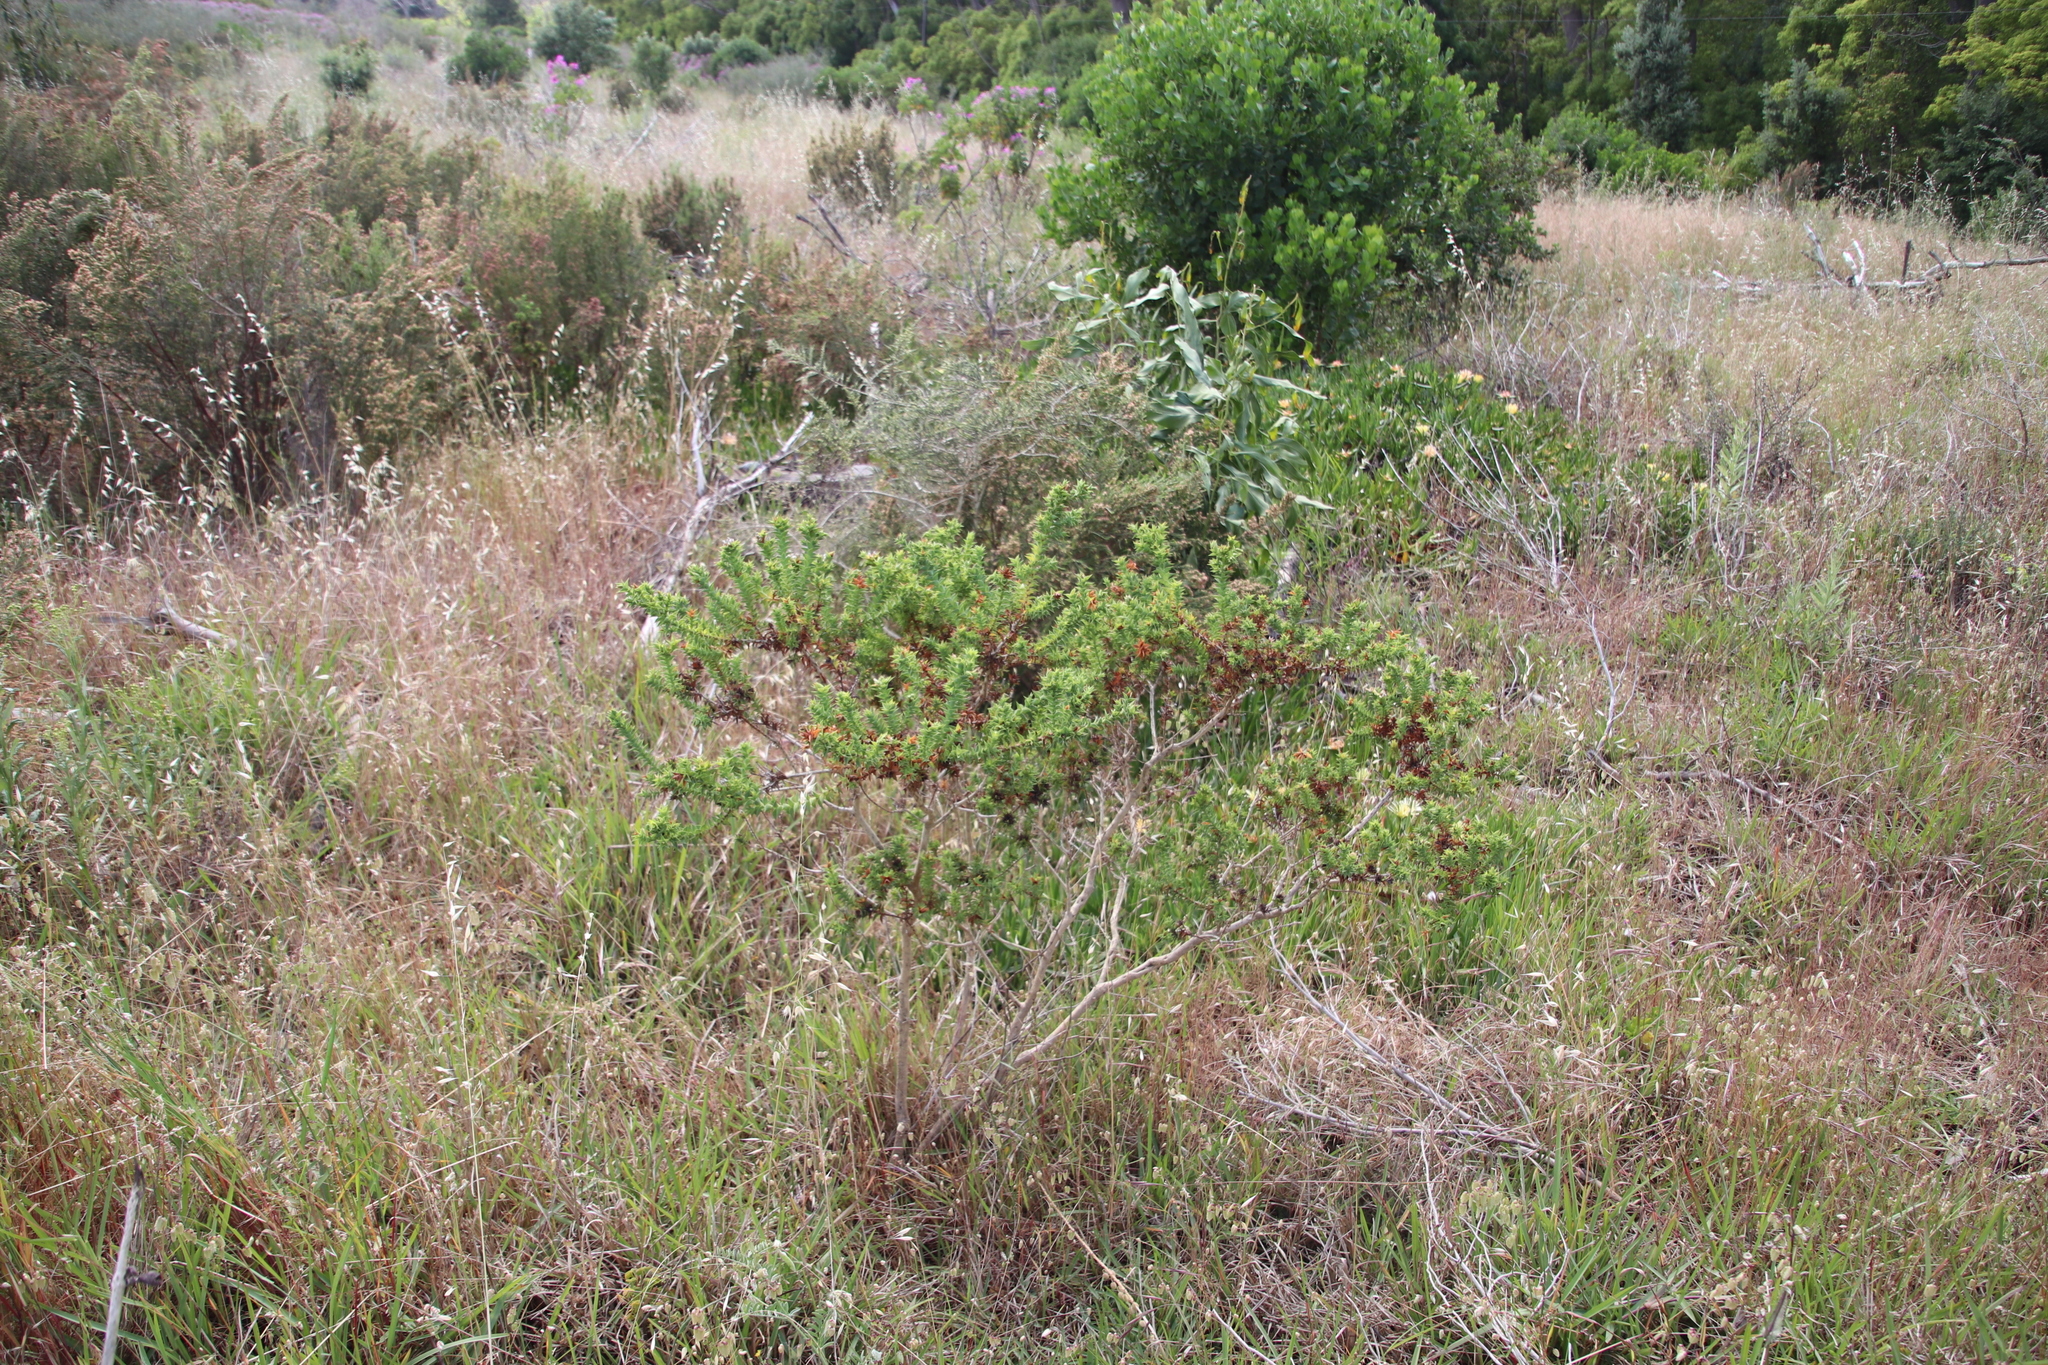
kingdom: Plantae
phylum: Tracheophyta
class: Magnoliopsida
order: Fabales
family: Fabaceae
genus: Aspalathus
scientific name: Aspalathus cordata
